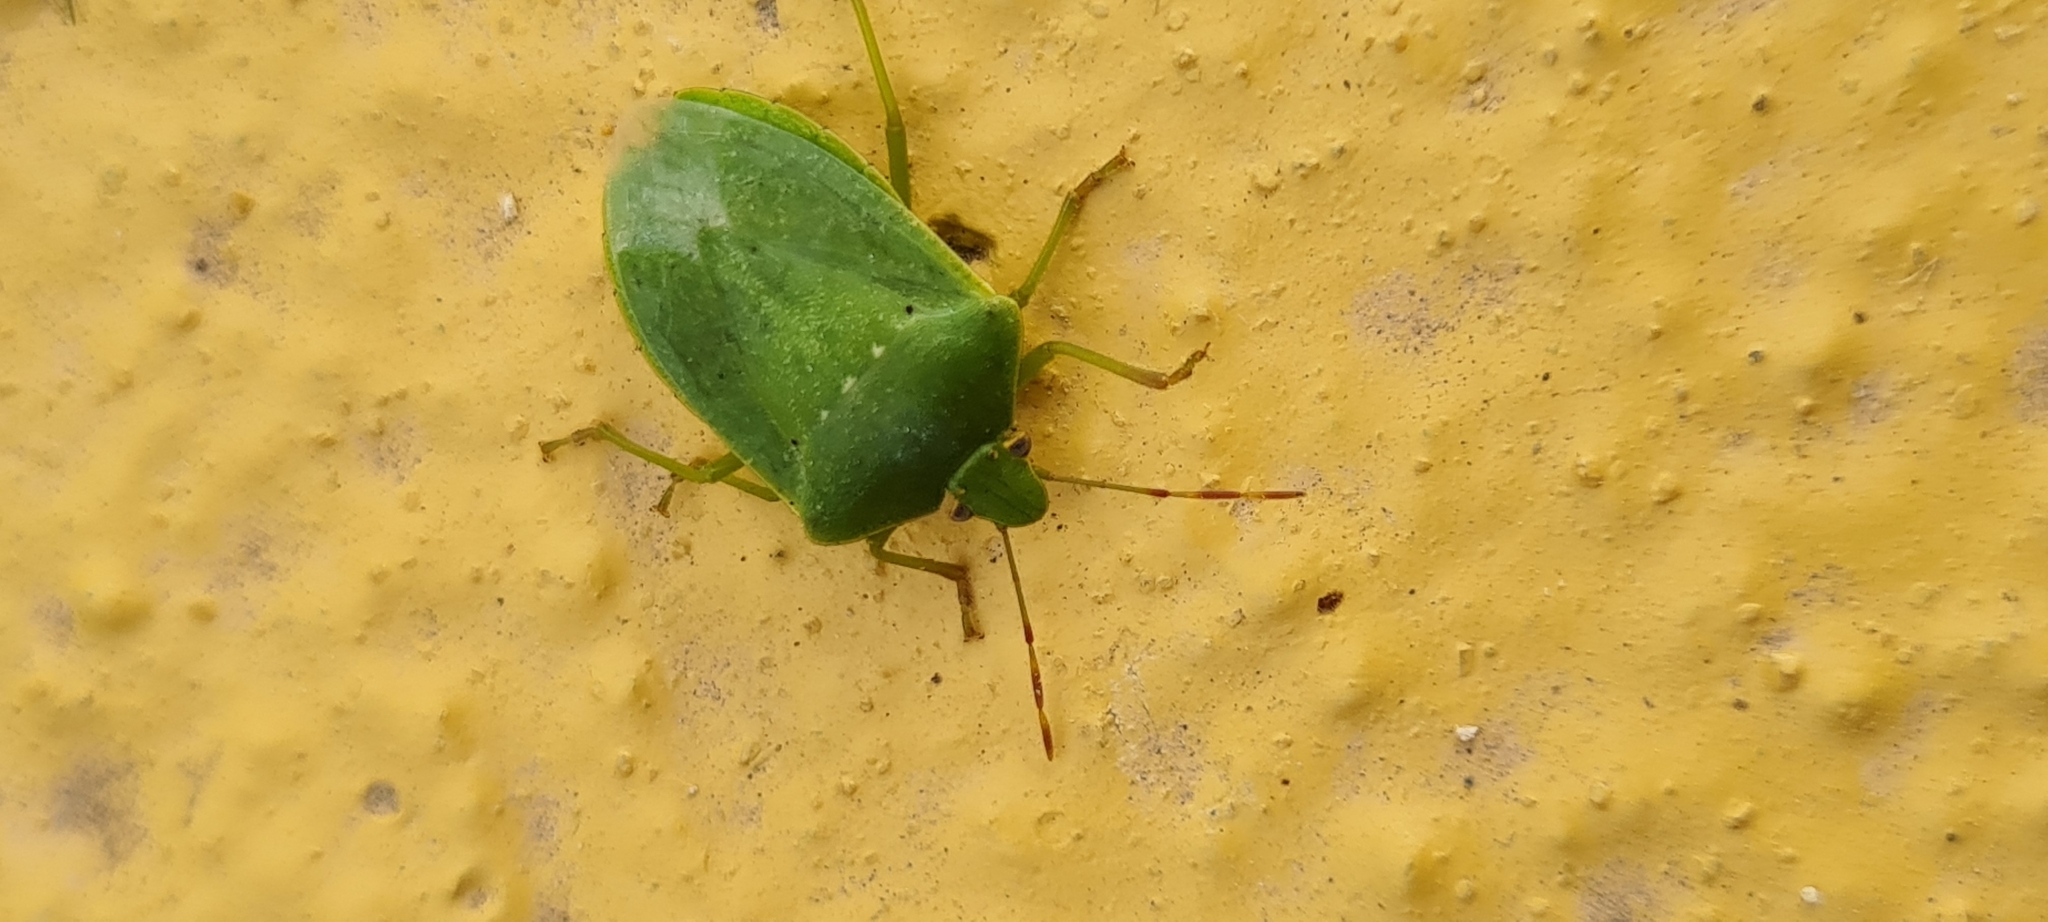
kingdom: Animalia
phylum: Arthropoda
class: Insecta
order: Hemiptera
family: Pentatomidae
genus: Nezara
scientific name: Nezara viridula
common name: Southern green stink bug
